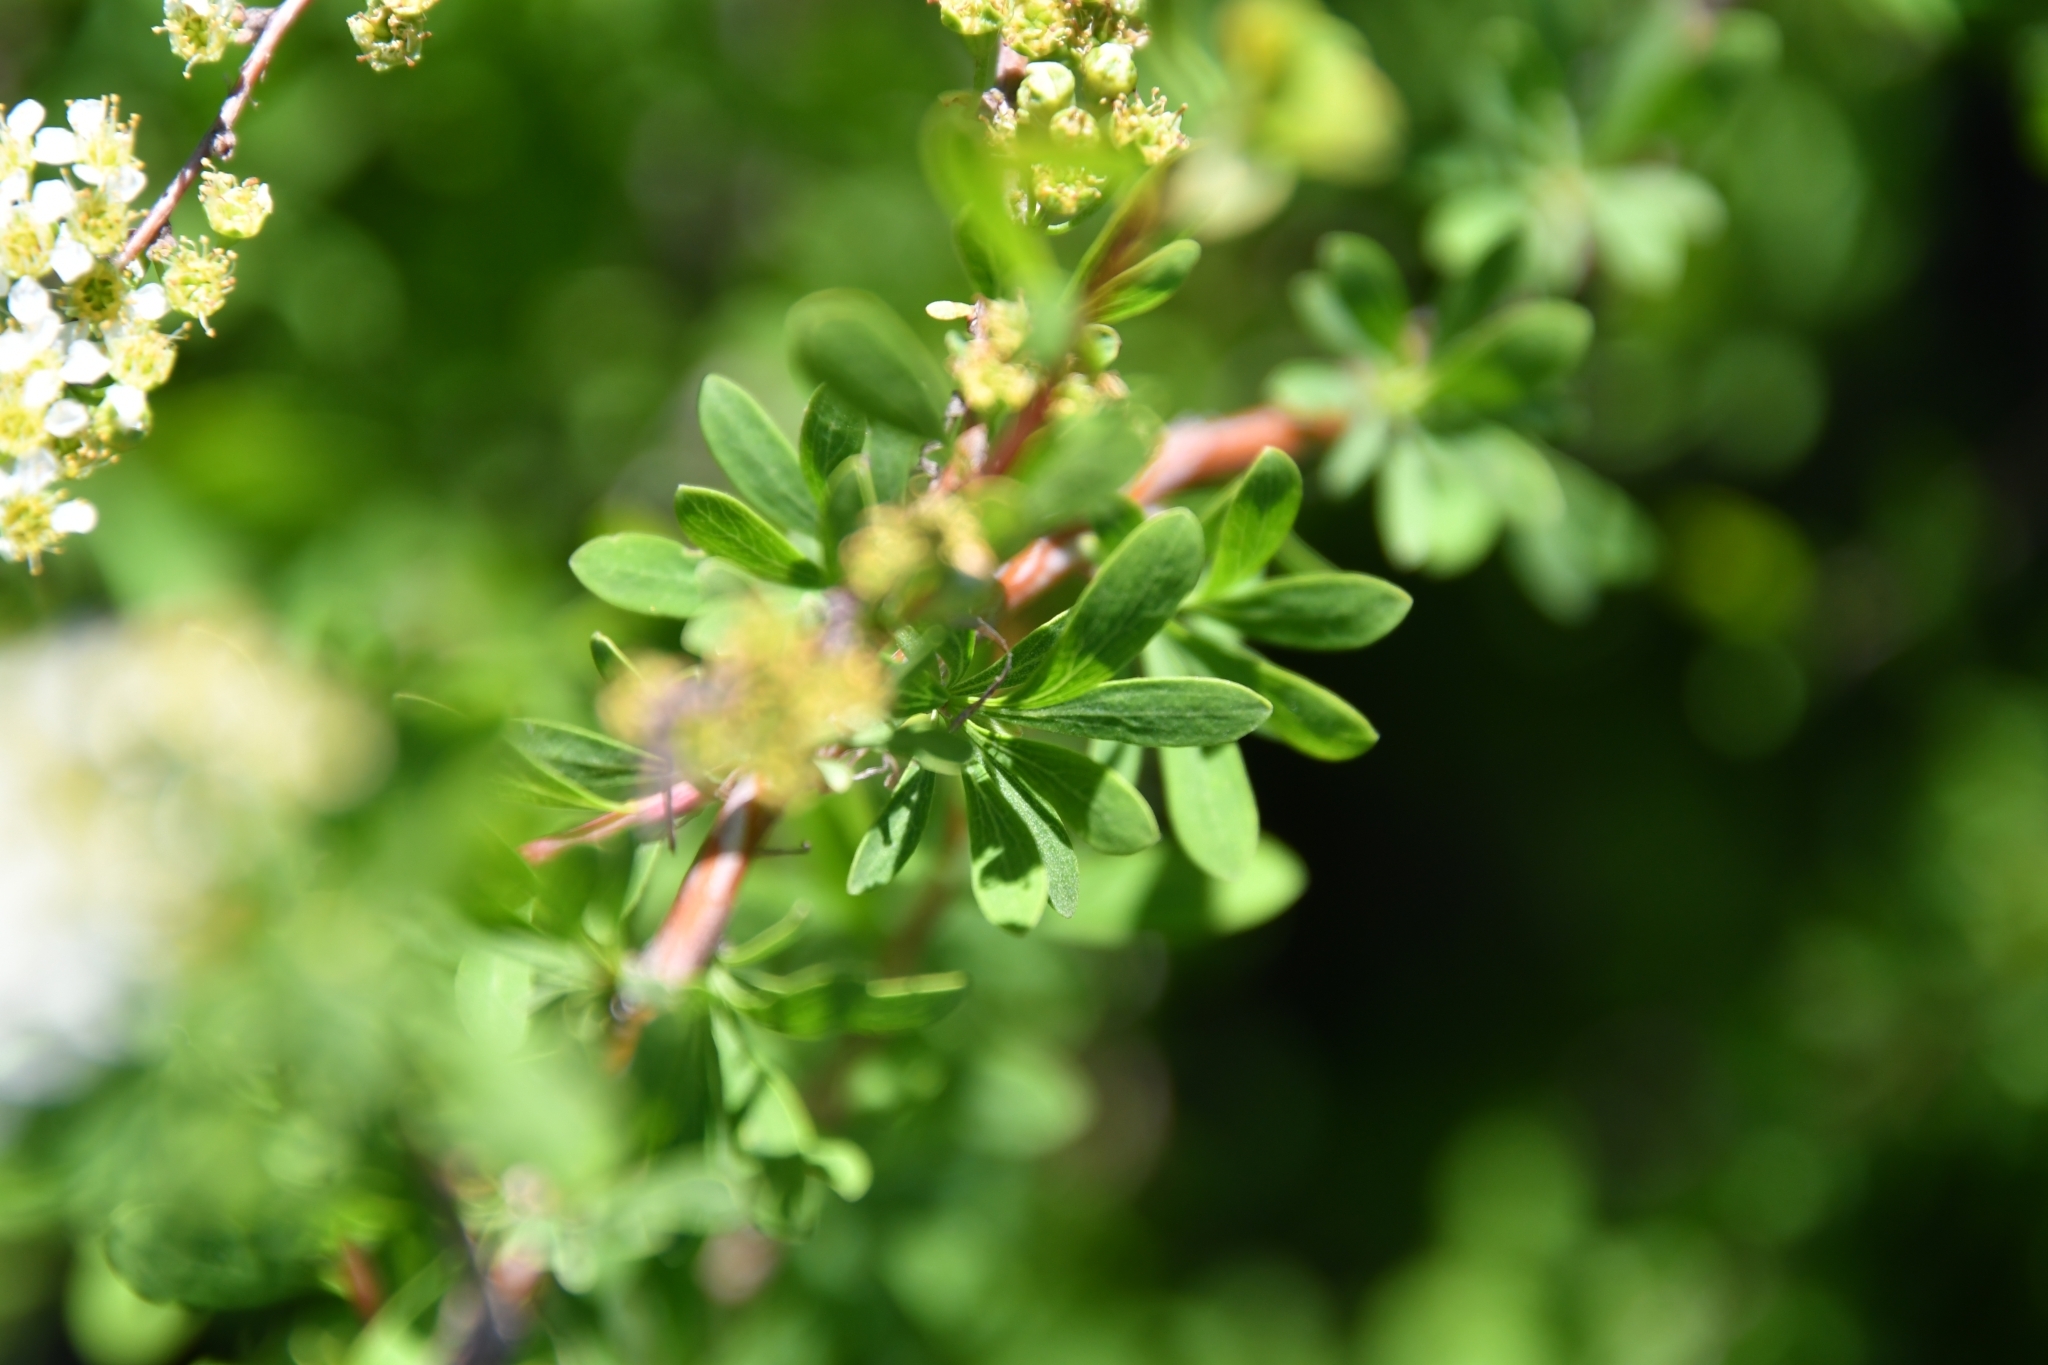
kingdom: Plantae
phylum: Tracheophyta
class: Magnoliopsida
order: Rosales
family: Rosaceae
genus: Spiraea
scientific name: Spiraea hypericifolia
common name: Iberian spirea
